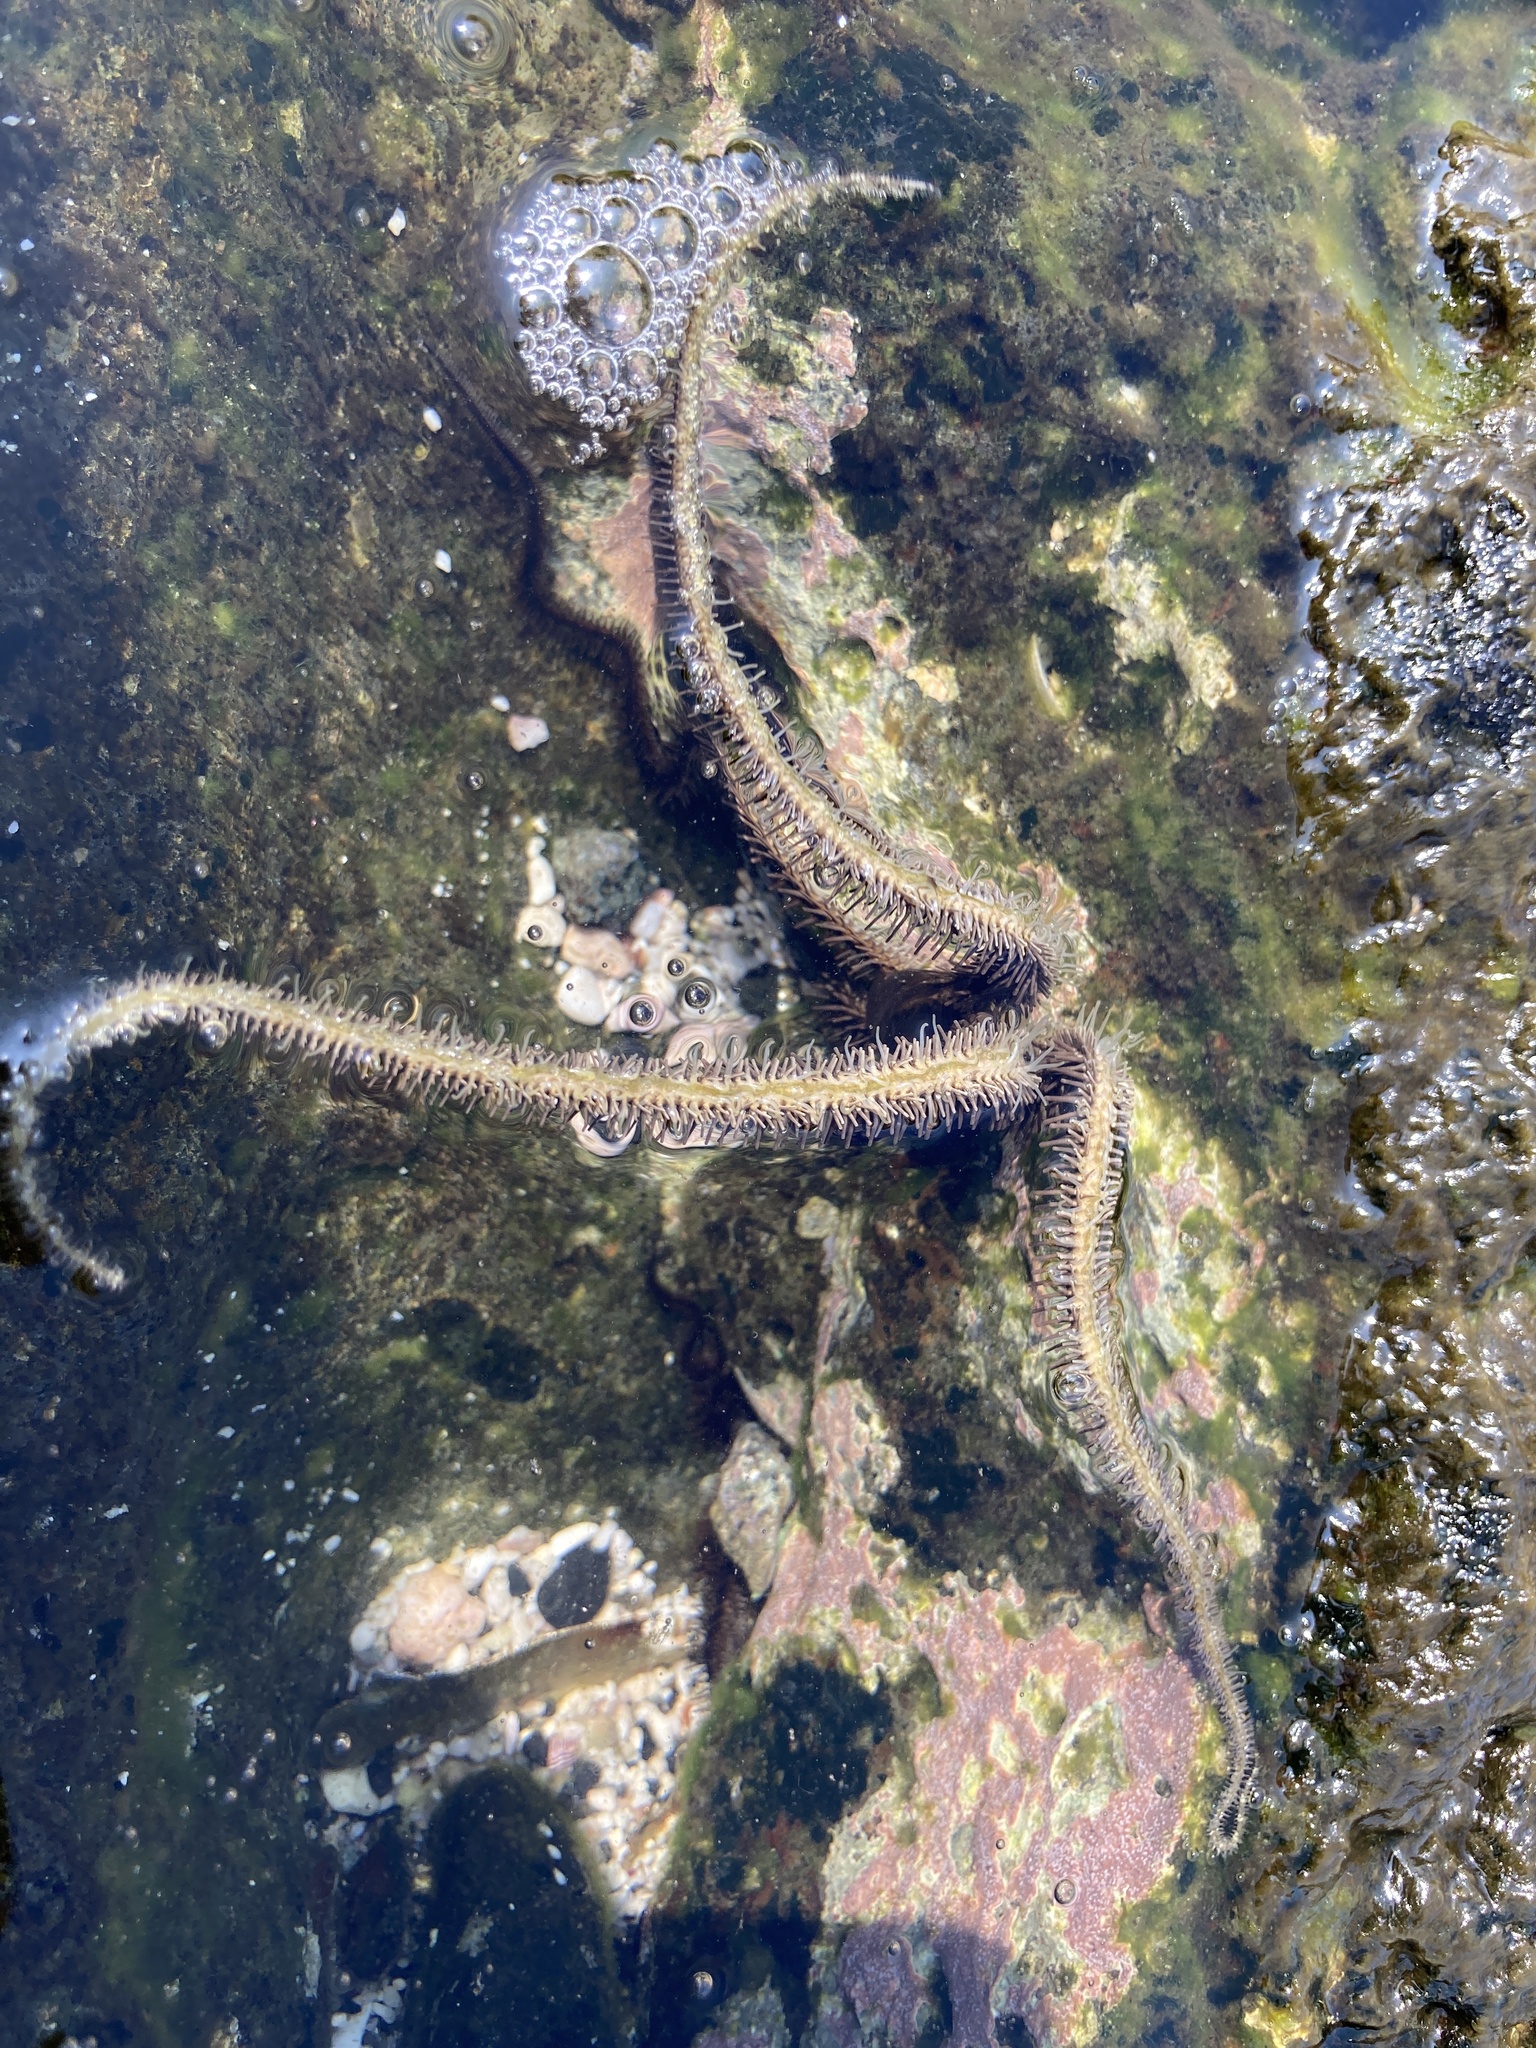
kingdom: Animalia
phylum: Echinodermata
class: Ophiuroidea
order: Ophiacanthida
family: Ophiocomidae
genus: Ophiocoma
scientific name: Ophiocoma scolopendrina
